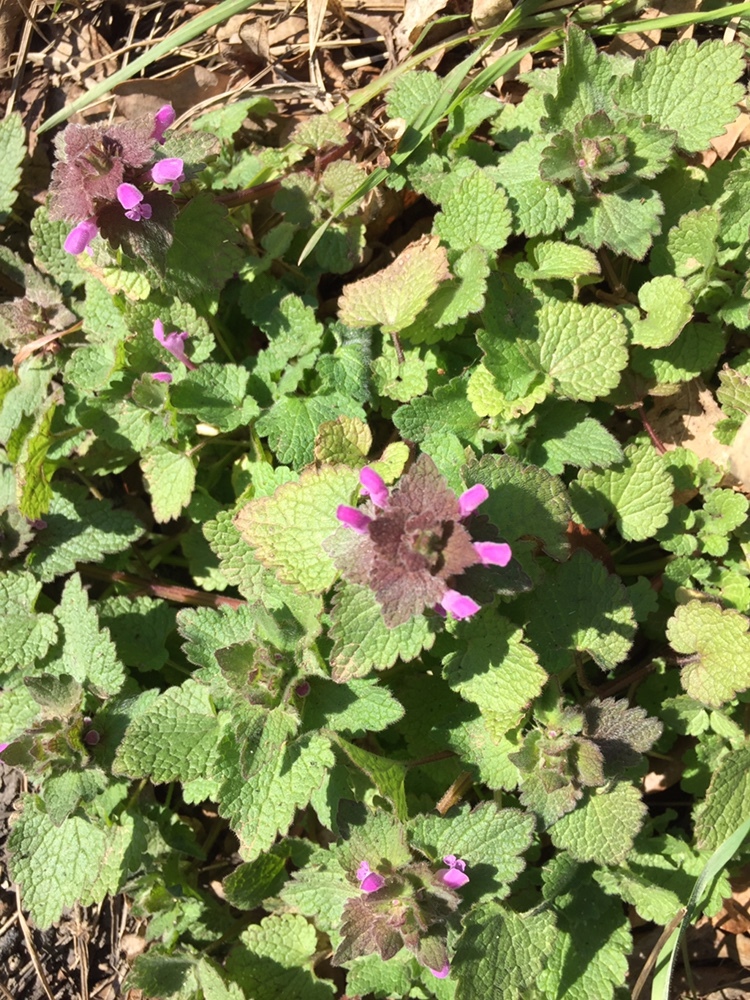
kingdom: Plantae
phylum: Tracheophyta
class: Magnoliopsida
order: Lamiales
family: Lamiaceae
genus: Lamium
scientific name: Lamium purpureum
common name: Red dead-nettle
